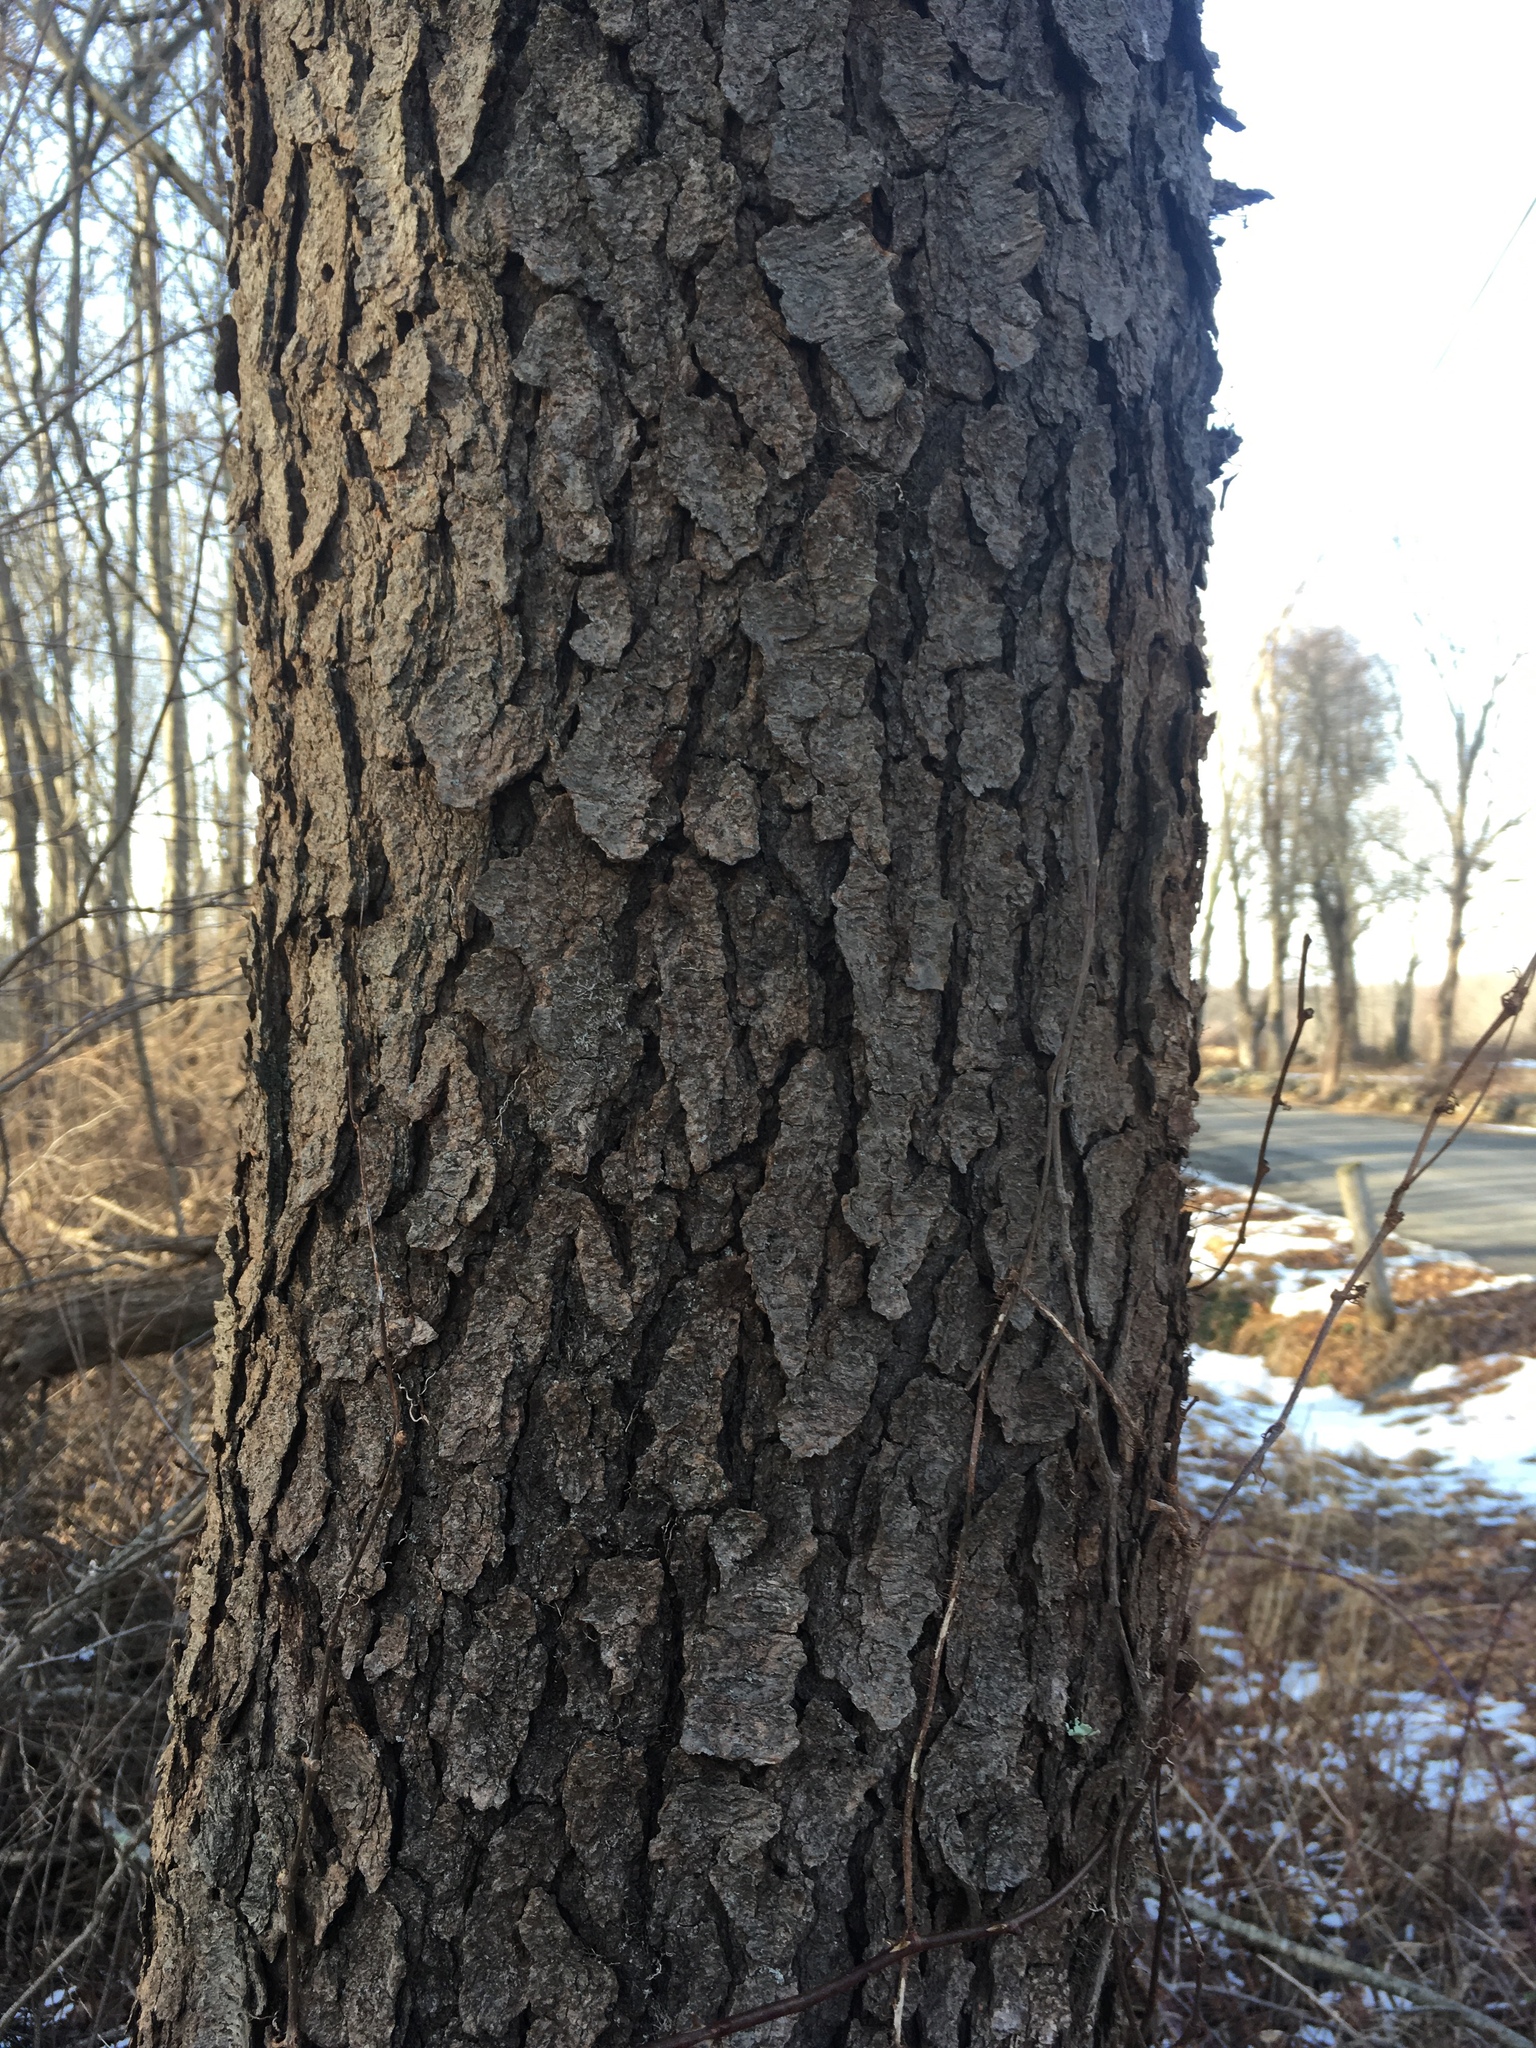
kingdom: Plantae
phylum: Tracheophyta
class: Magnoliopsida
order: Rosales
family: Rosaceae
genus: Prunus
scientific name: Prunus serotina
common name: Black cherry
